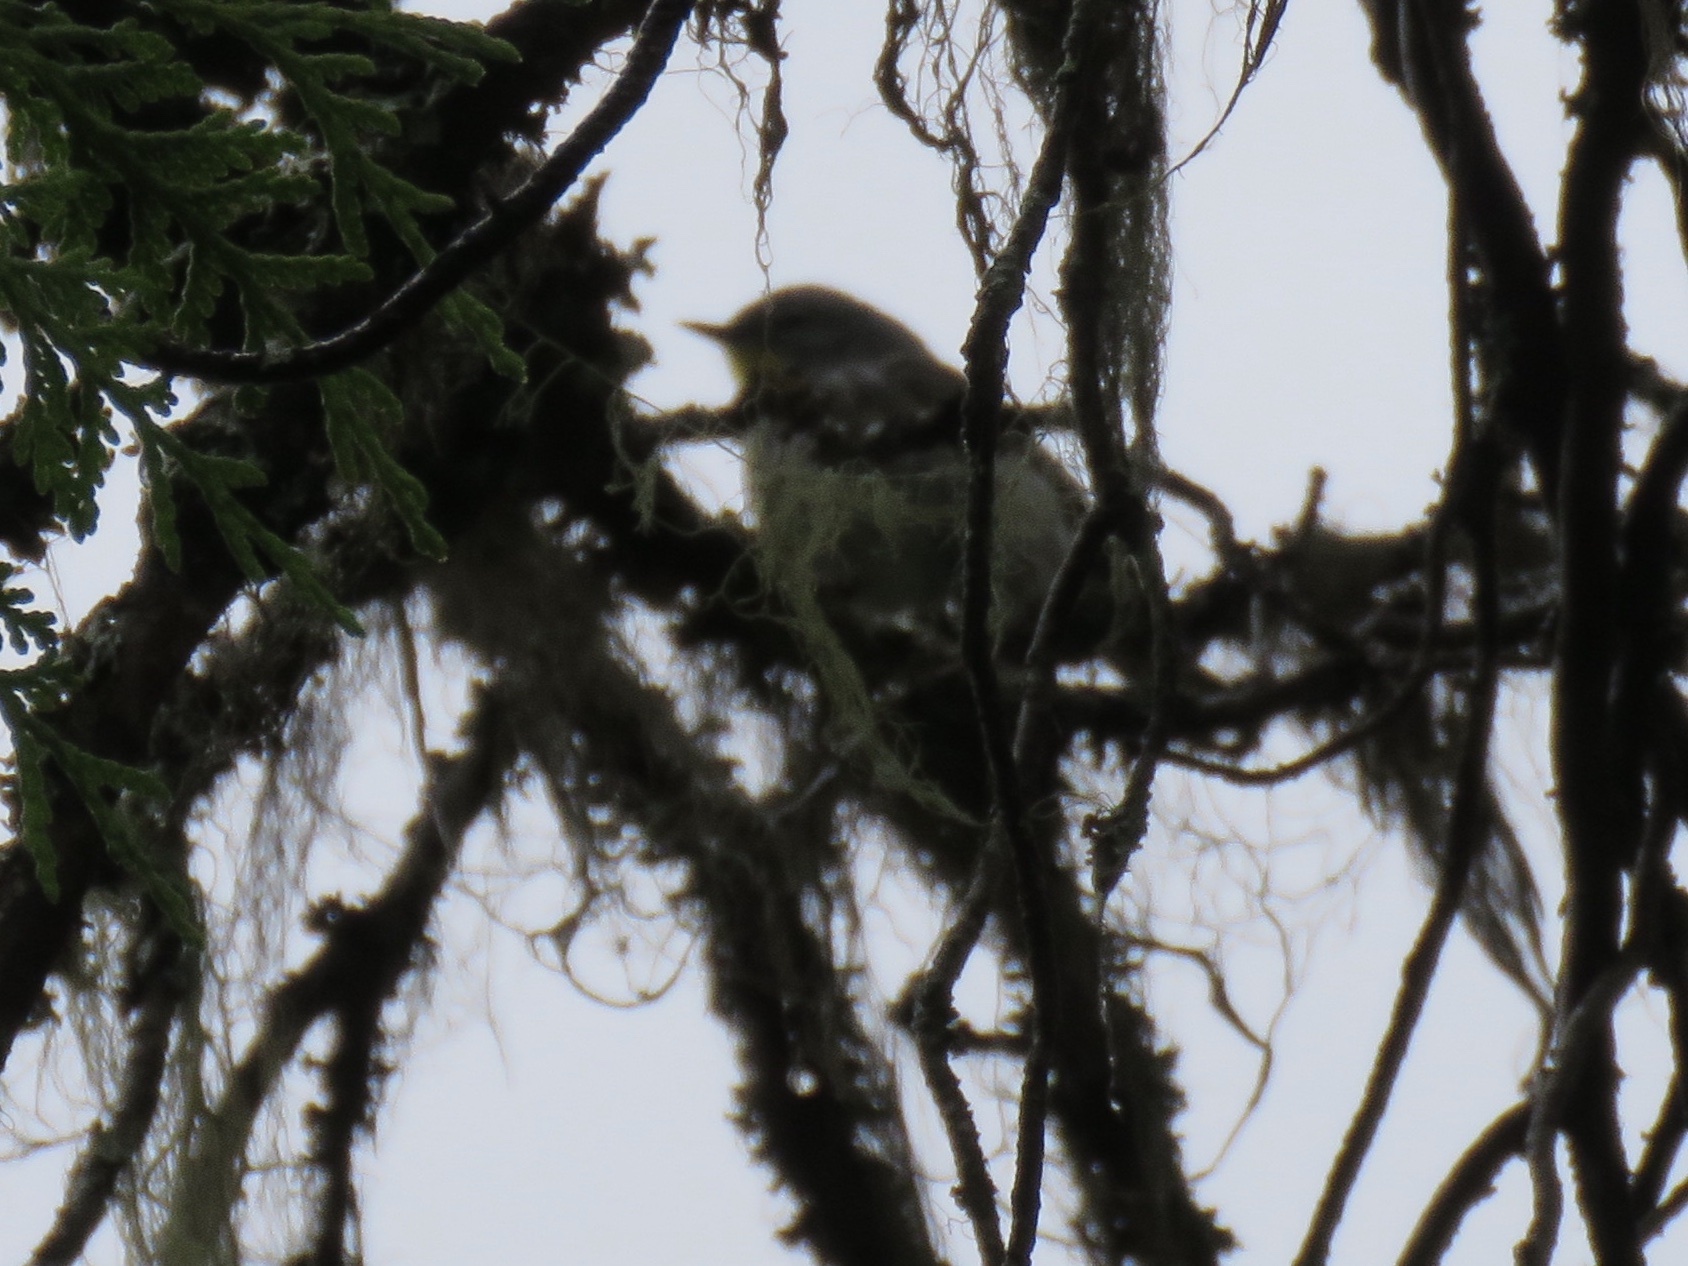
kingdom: Animalia
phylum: Chordata
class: Aves
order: Passeriformes
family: Parulidae
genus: Setophaga
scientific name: Setophaga coronata
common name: Myrtle warbler
